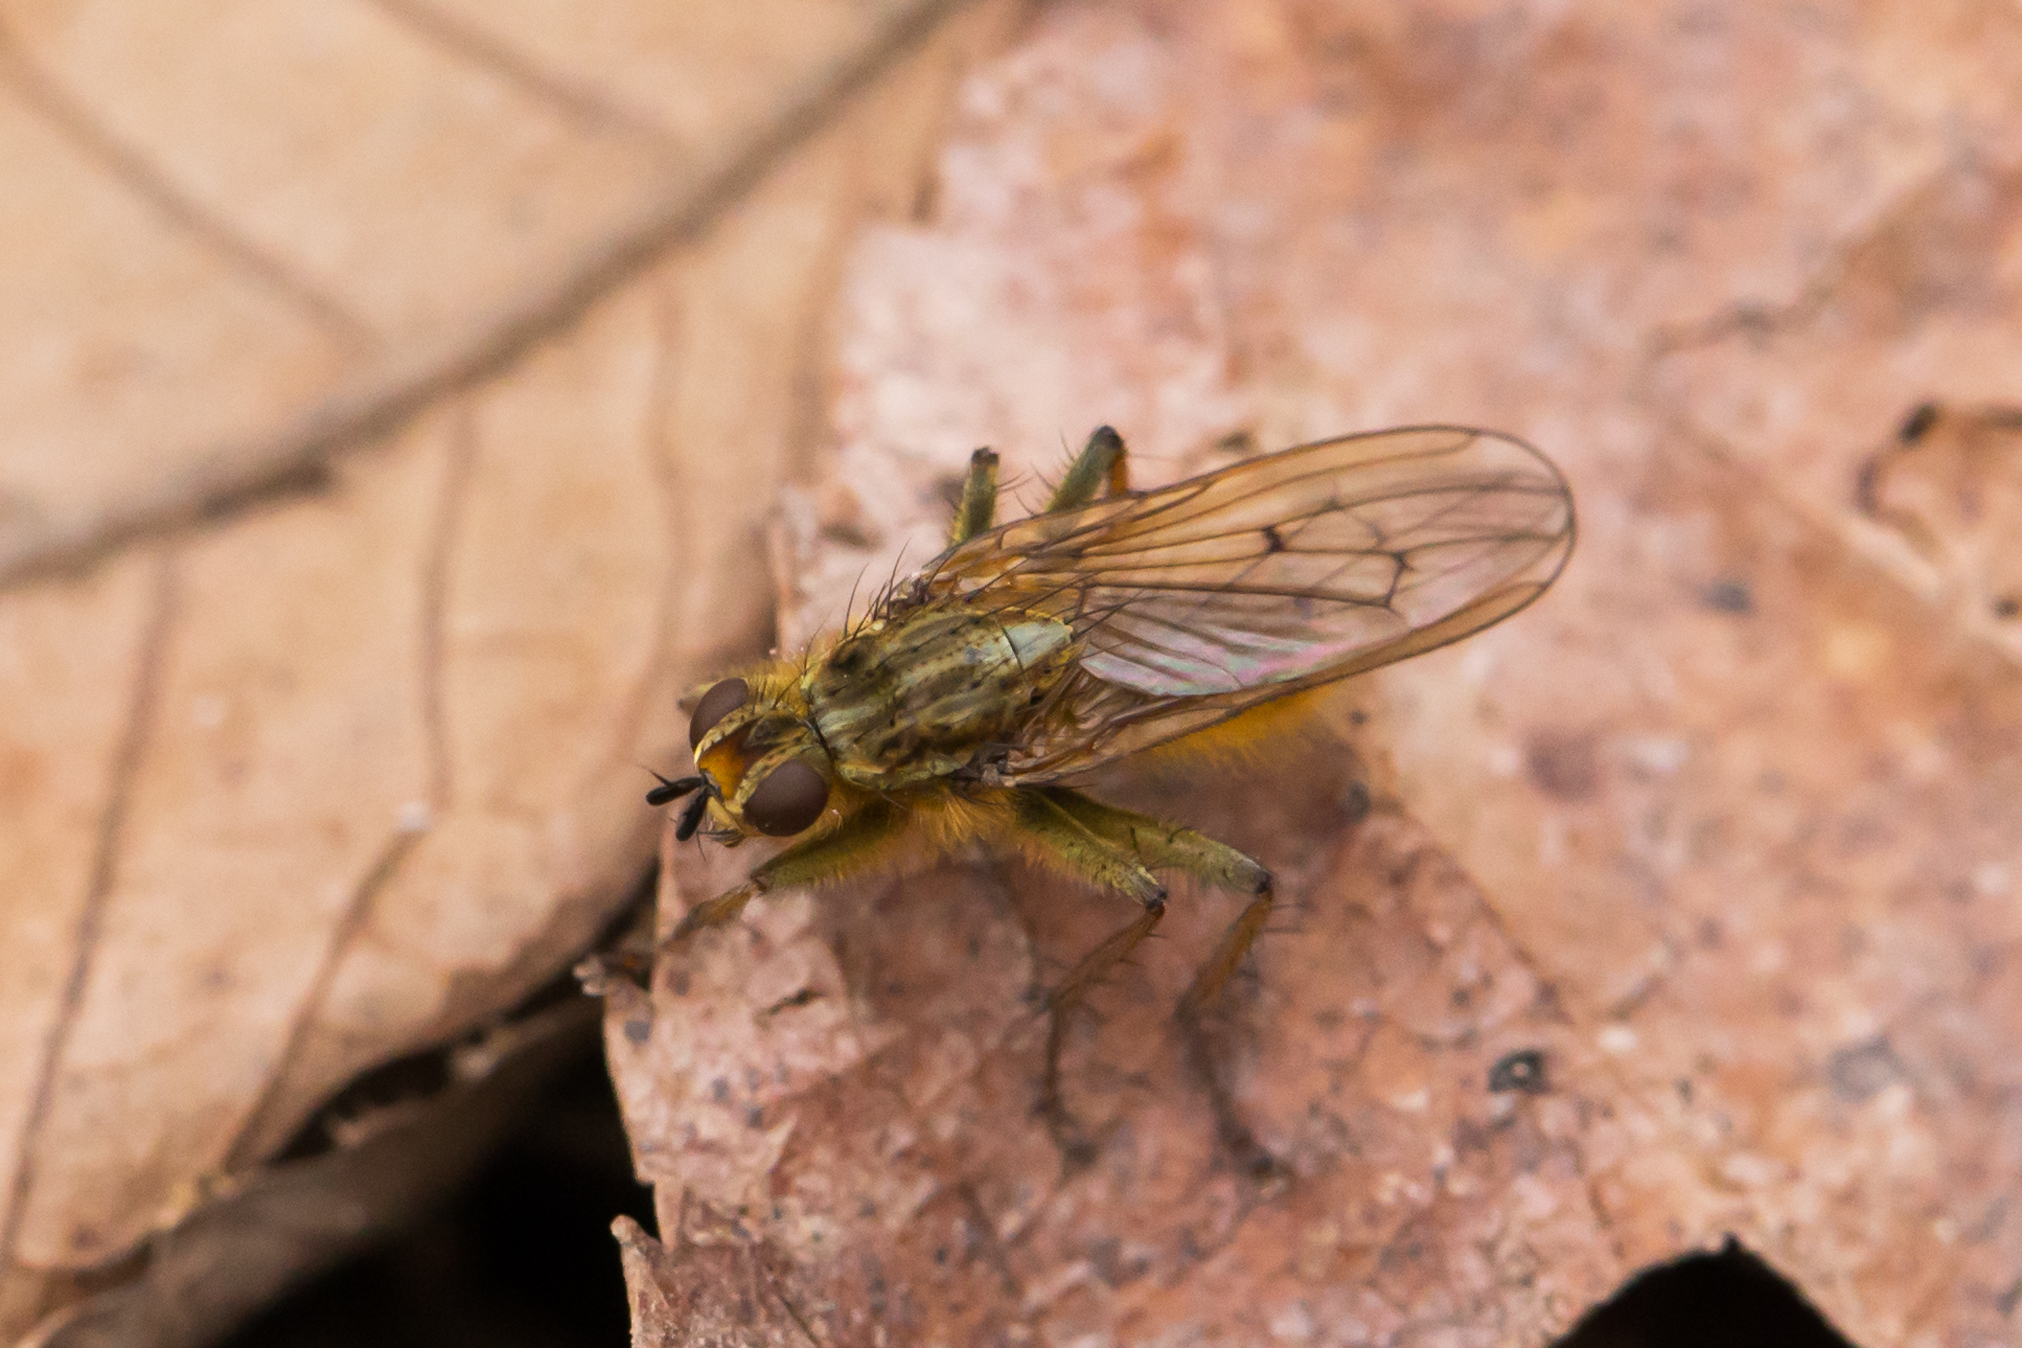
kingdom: Animalia
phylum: Arthropoda
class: Insecta
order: Diptera
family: Scathophagidae
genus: Scathophaga
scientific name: Scathophaga stercoraria
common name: Yellow dung fly
